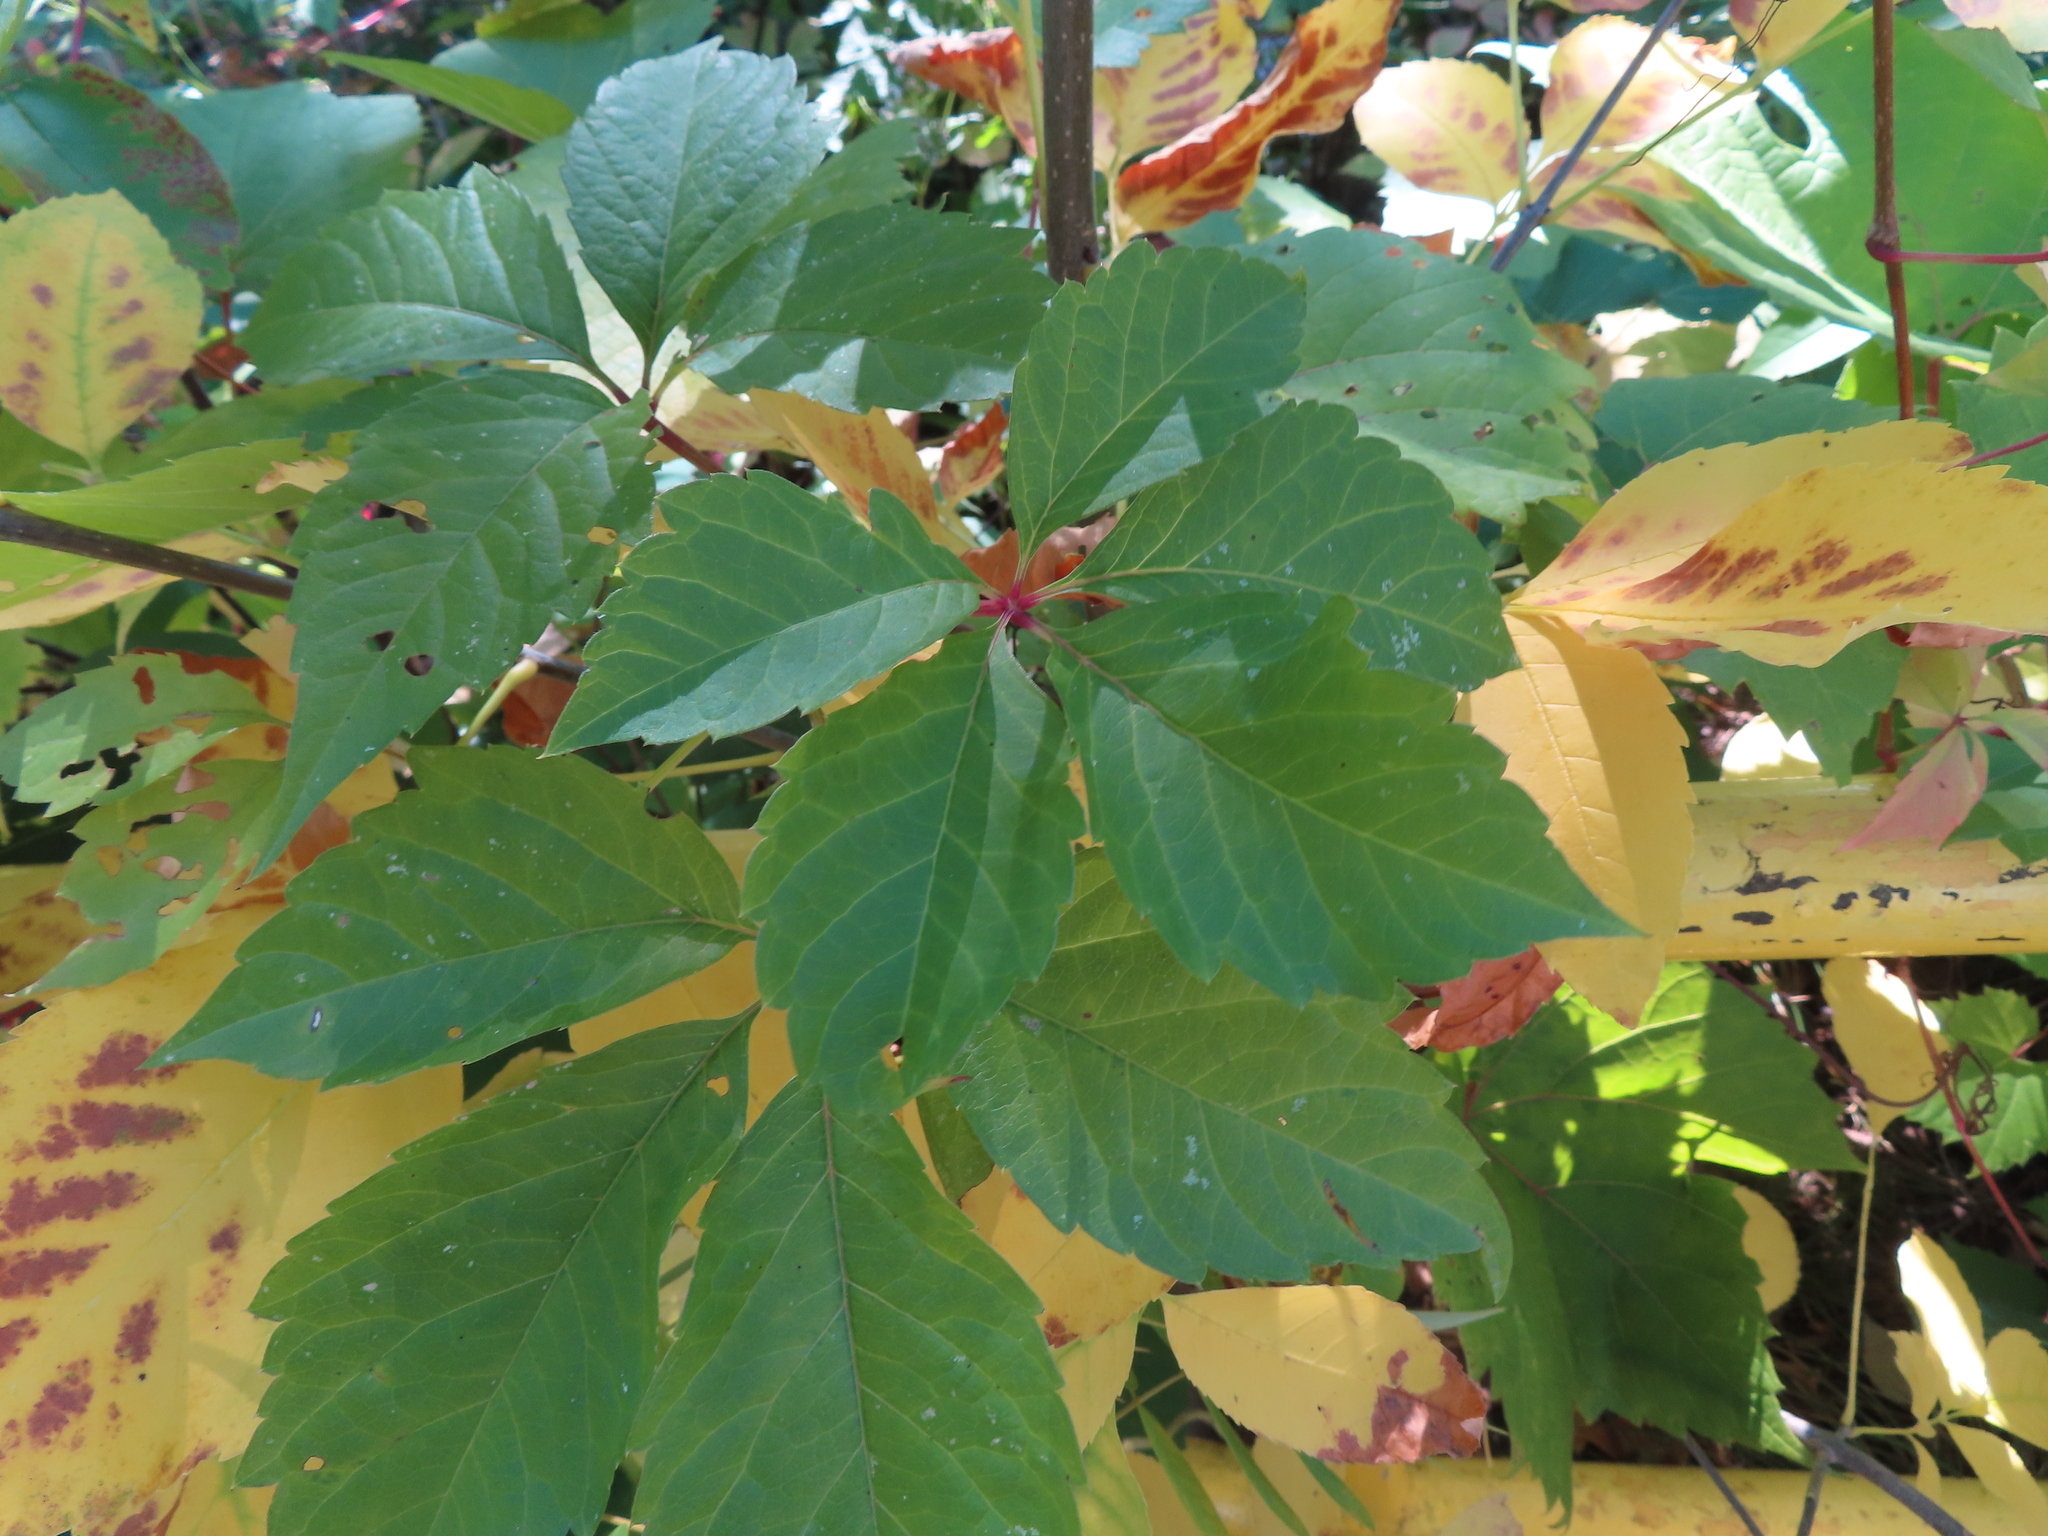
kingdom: Plantae
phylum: Tracheophyta
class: Magnoliopsida
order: Vitales
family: Vitaceae
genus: Parthenocissus
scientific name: Parthenocissus inserta
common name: False virginia-creeper
